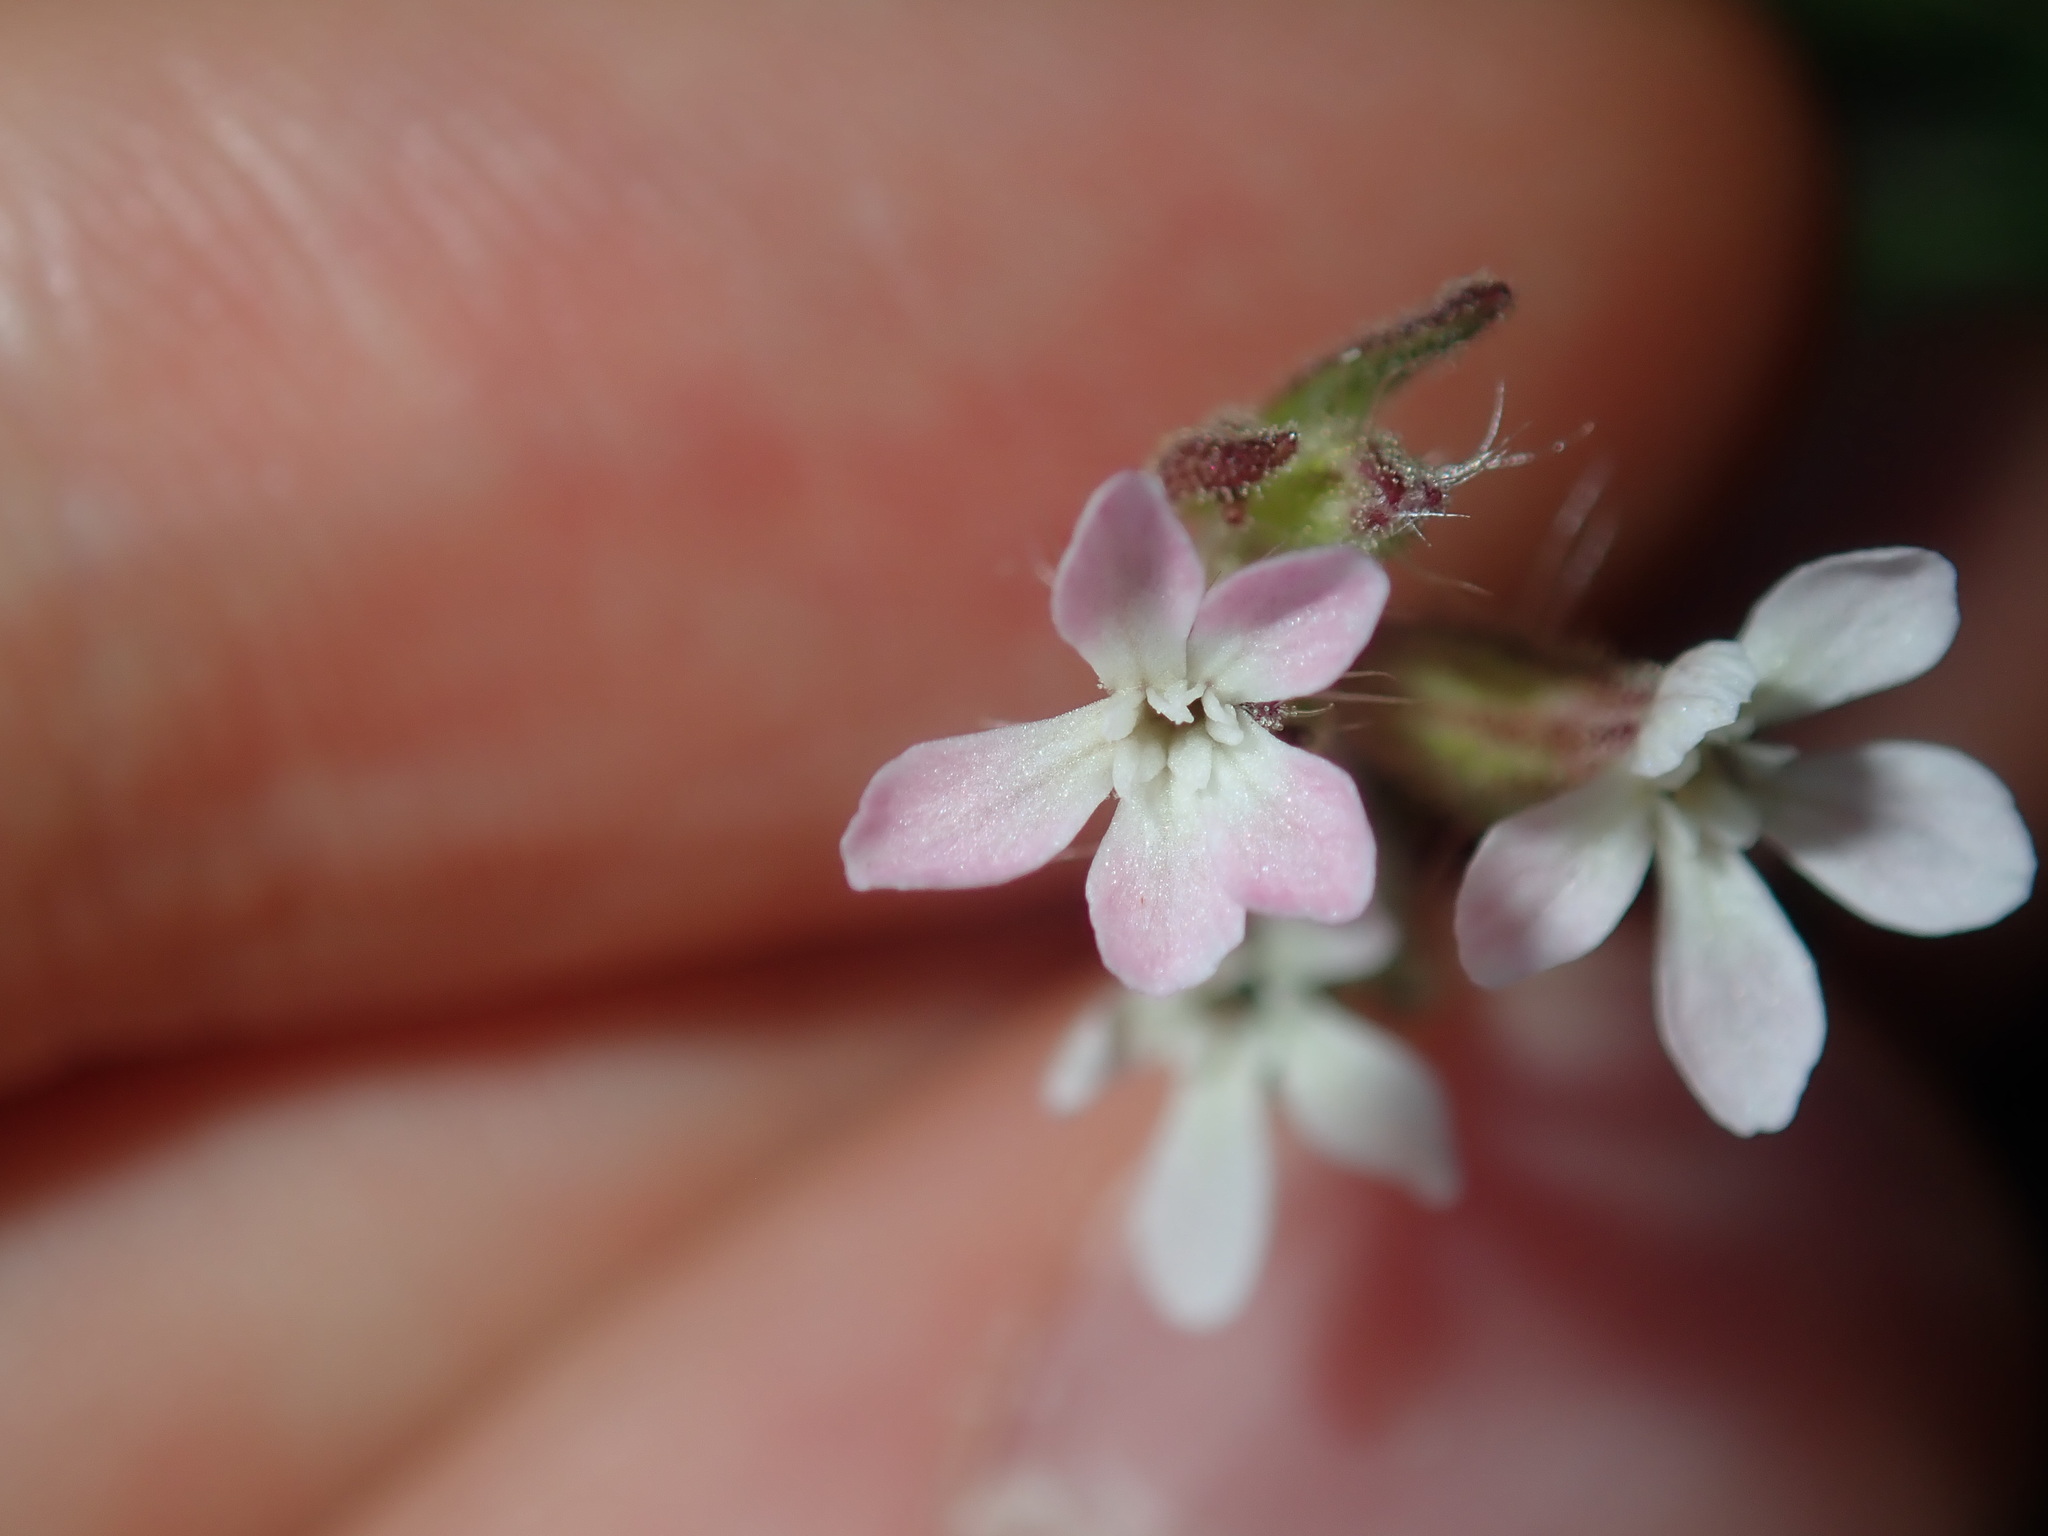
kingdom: Plantae
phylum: Tracheophyta
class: Magnoliopsida
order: Caryophyllales
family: Caryophyllaceae
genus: Silene
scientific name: Silene gallica
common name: Small-flowered catchfly
